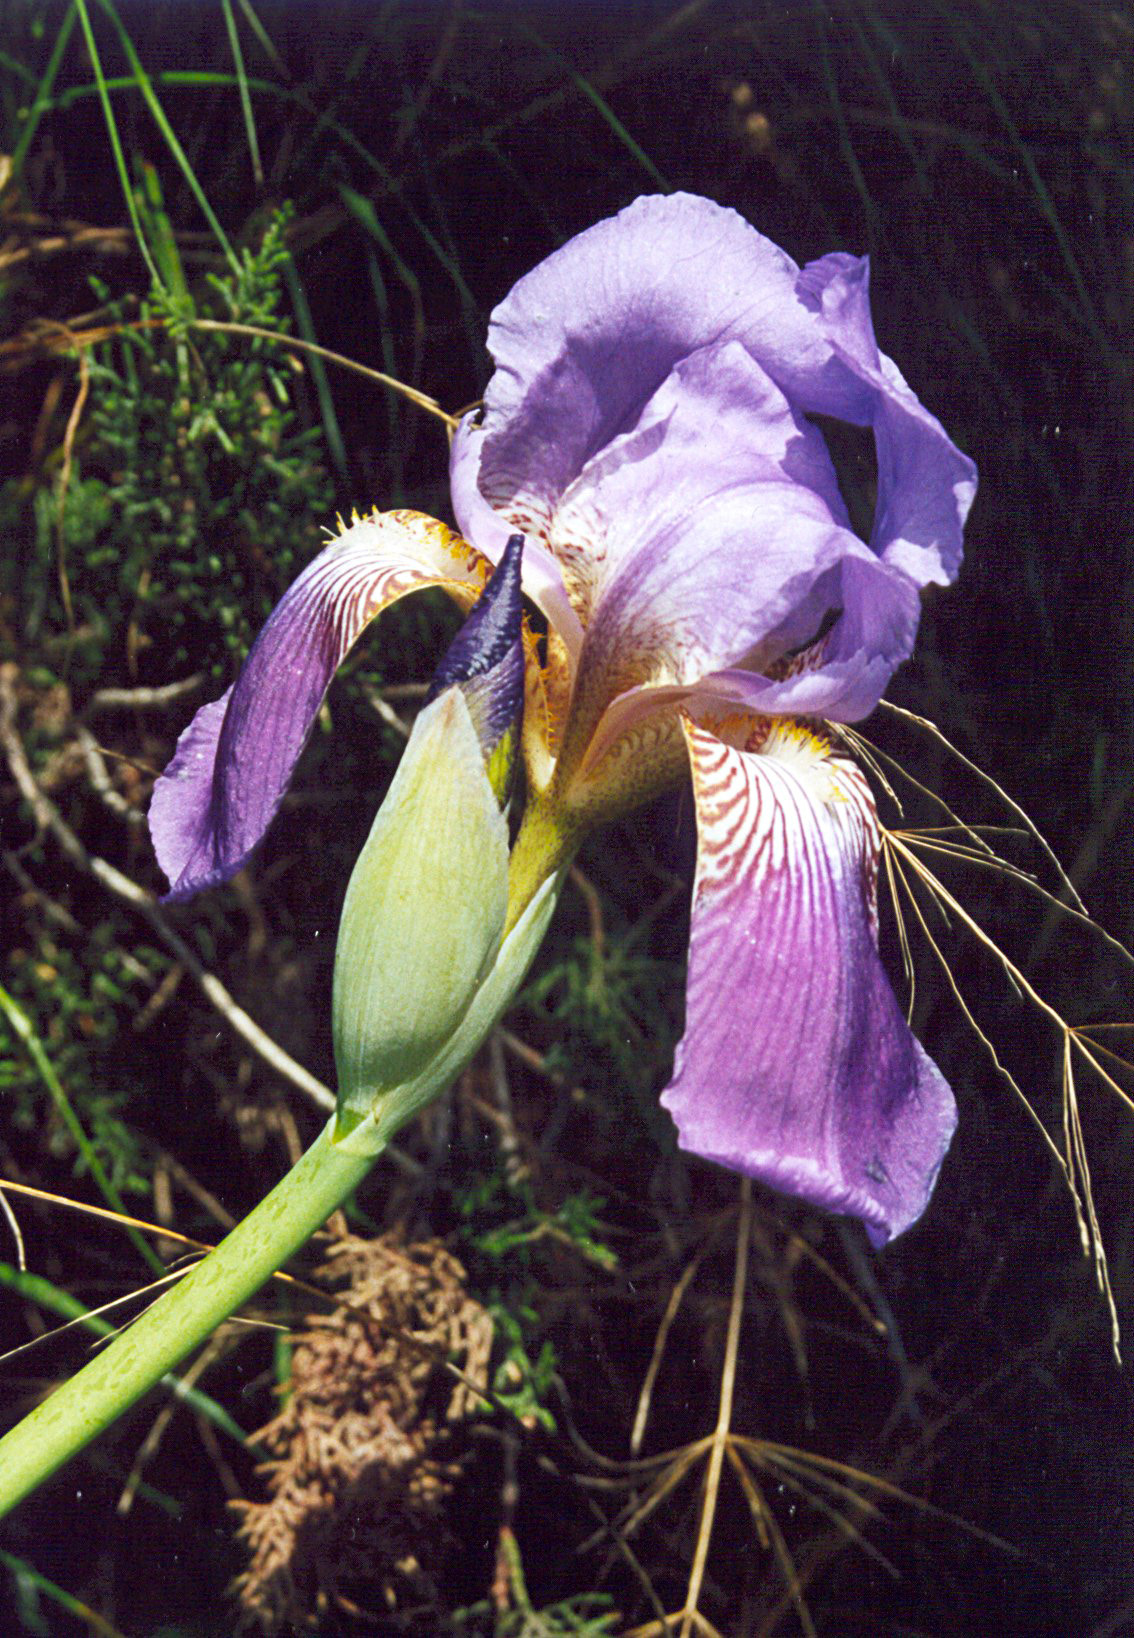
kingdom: Plantae
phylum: Tracheophyta
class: Liliopsida
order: Asparagales
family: Iridaceae
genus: Iris
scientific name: Iris germanica
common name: German iris
